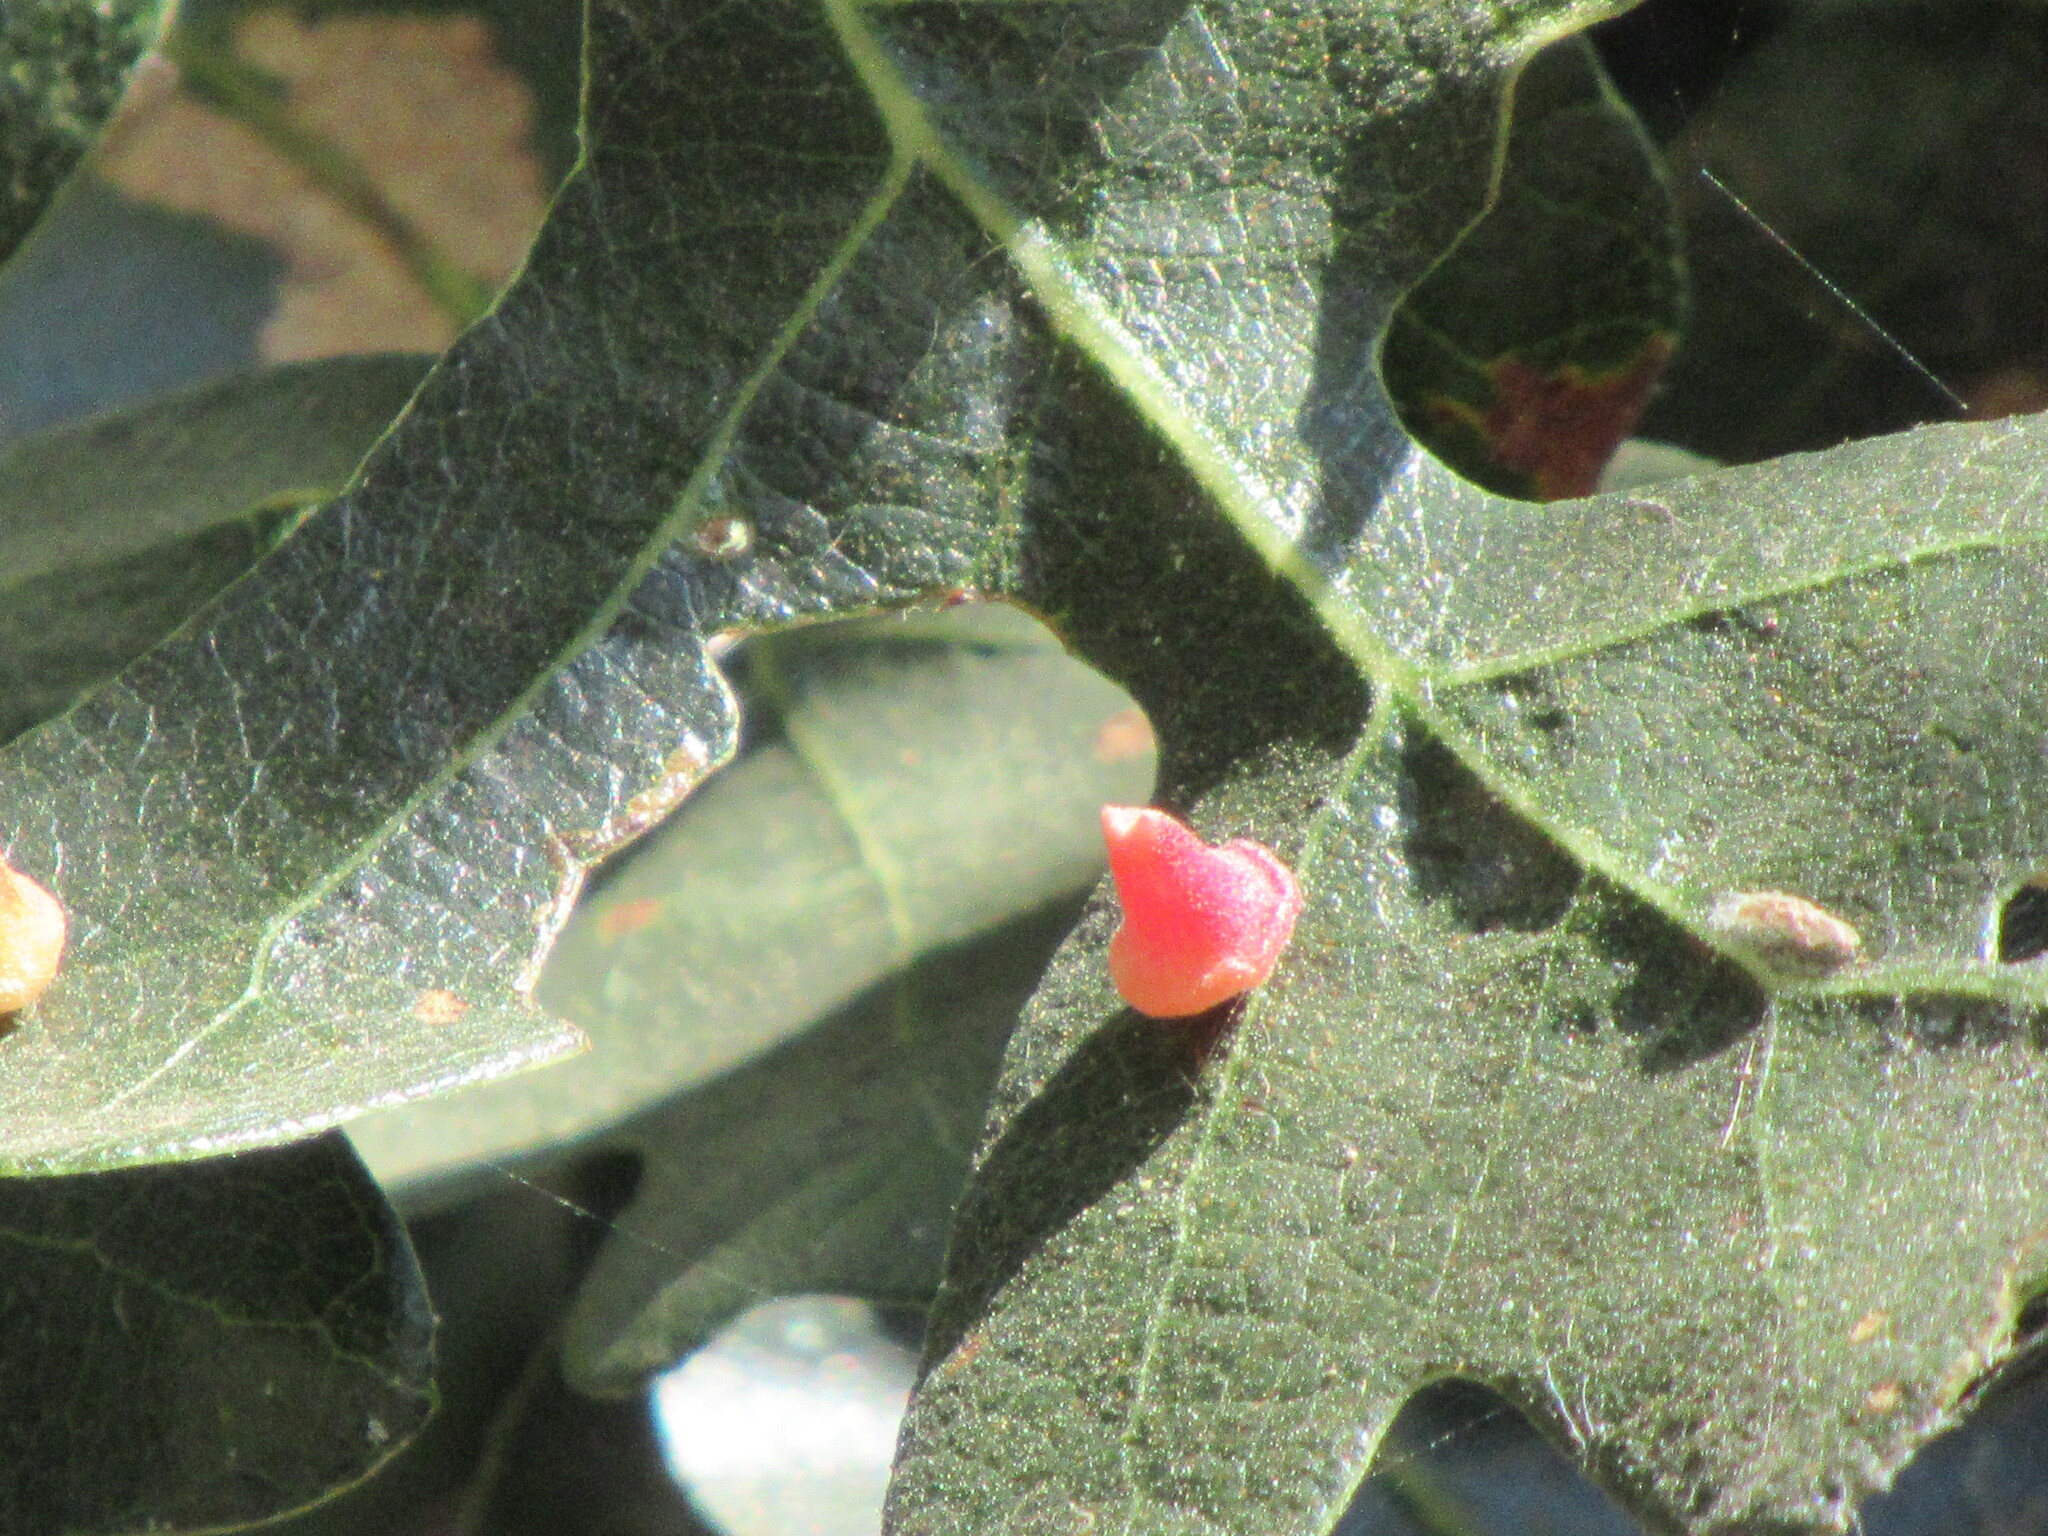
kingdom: Animalia
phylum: Arthropoda
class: Insecta
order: Hymenoptera
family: Cynipidae
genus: Andricus
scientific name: Andricus
